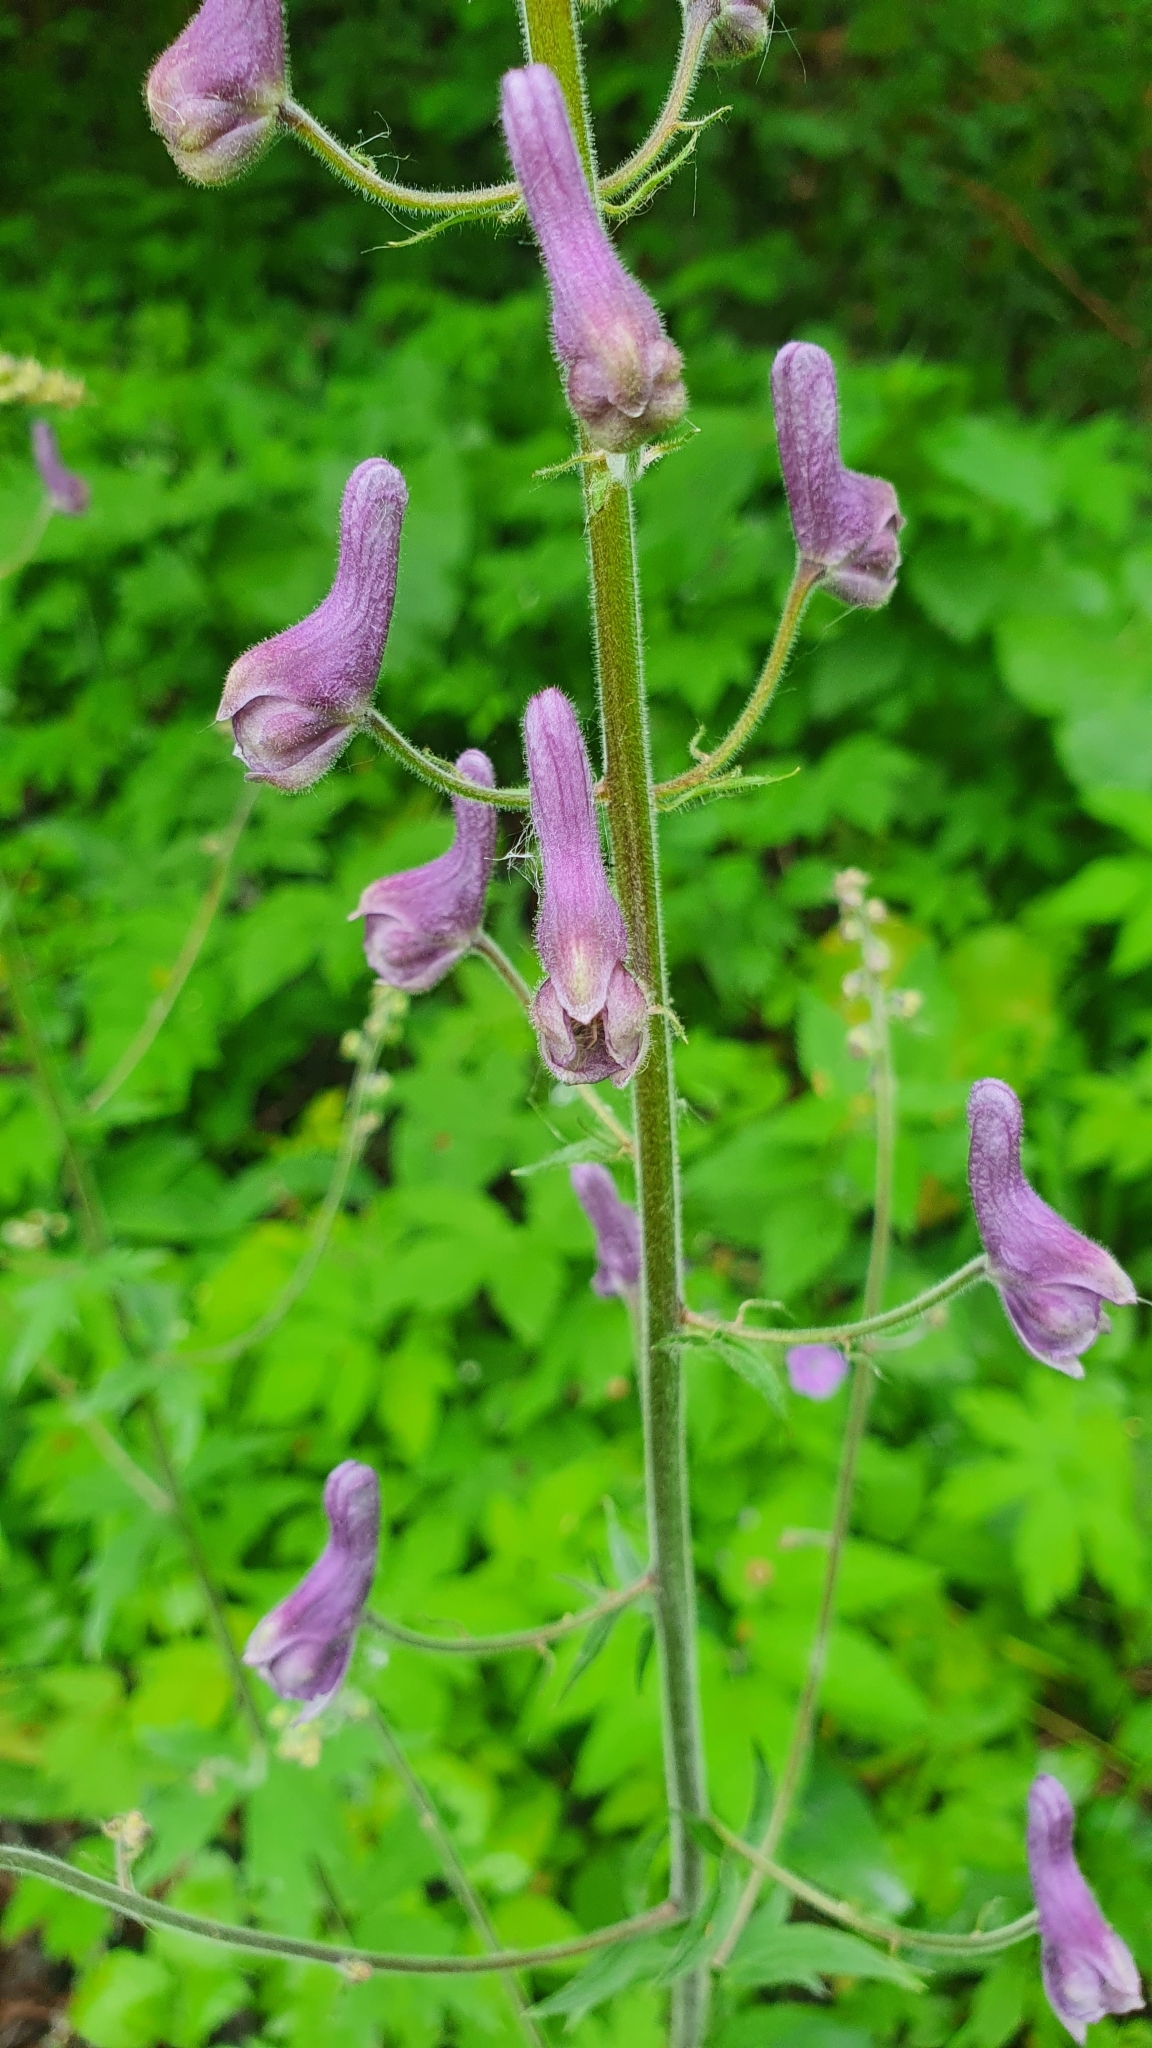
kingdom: Plantae
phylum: Tracheophyta
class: Magnoliopsida
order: Ranunculales
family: Ranunculaceae
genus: Aconitum
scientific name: Aconitum septentrionale
